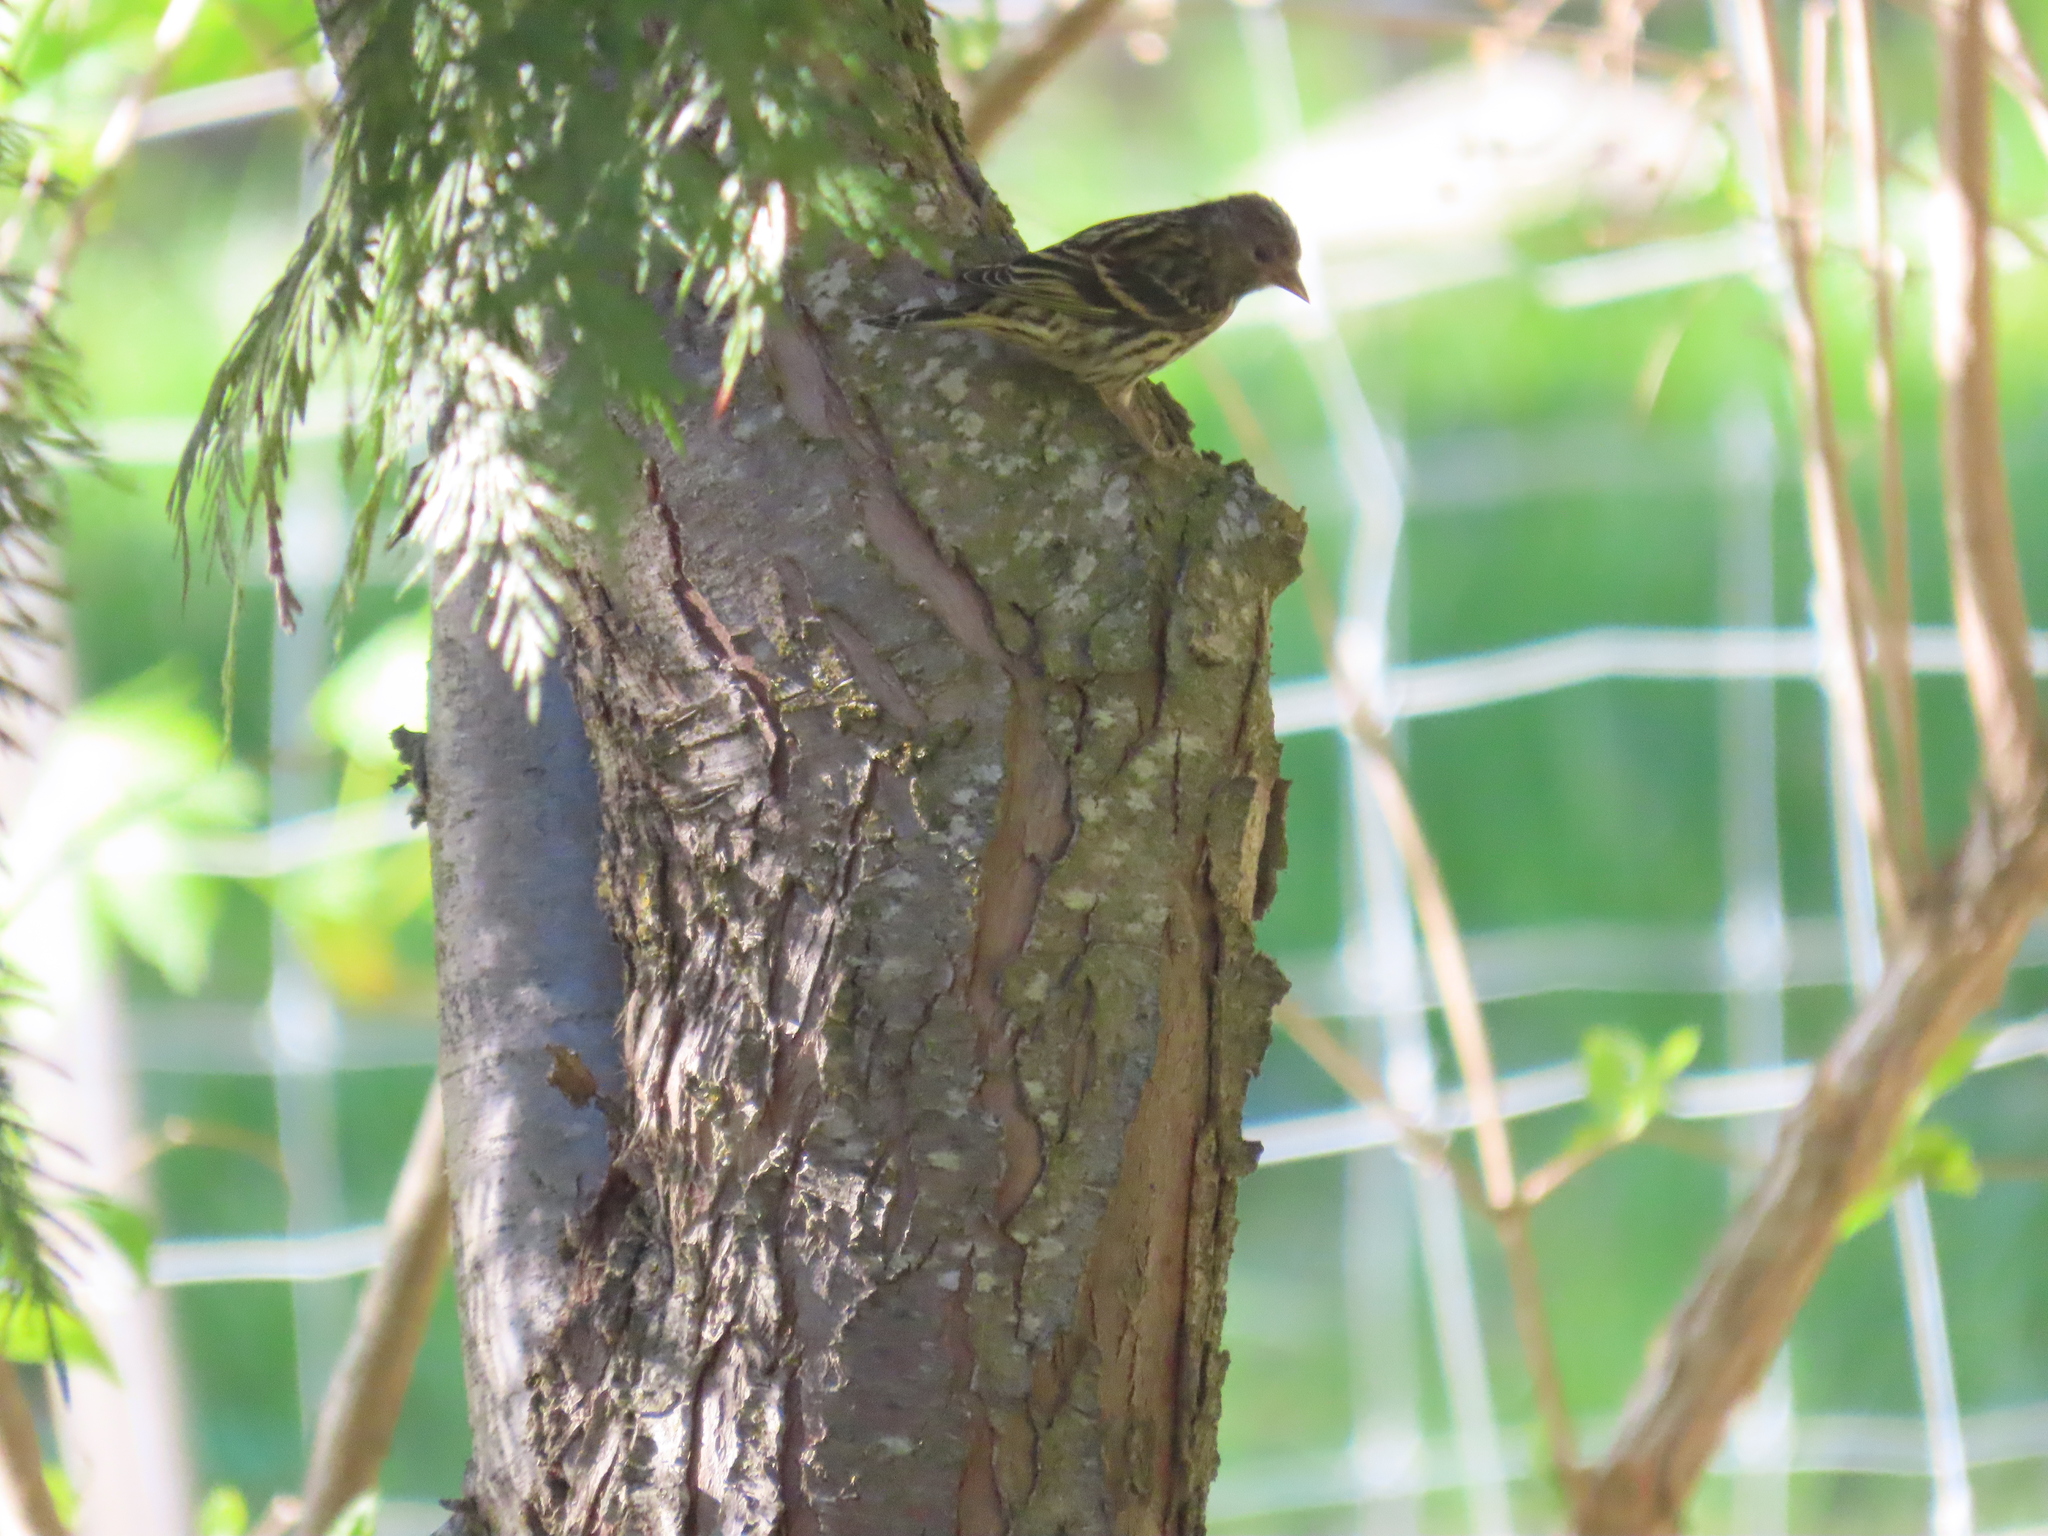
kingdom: Animalia
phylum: Chordata
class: Aves
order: Passeriformes
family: Fringillidae
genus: Spinus
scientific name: Spinus pinus
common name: Pine siskin
